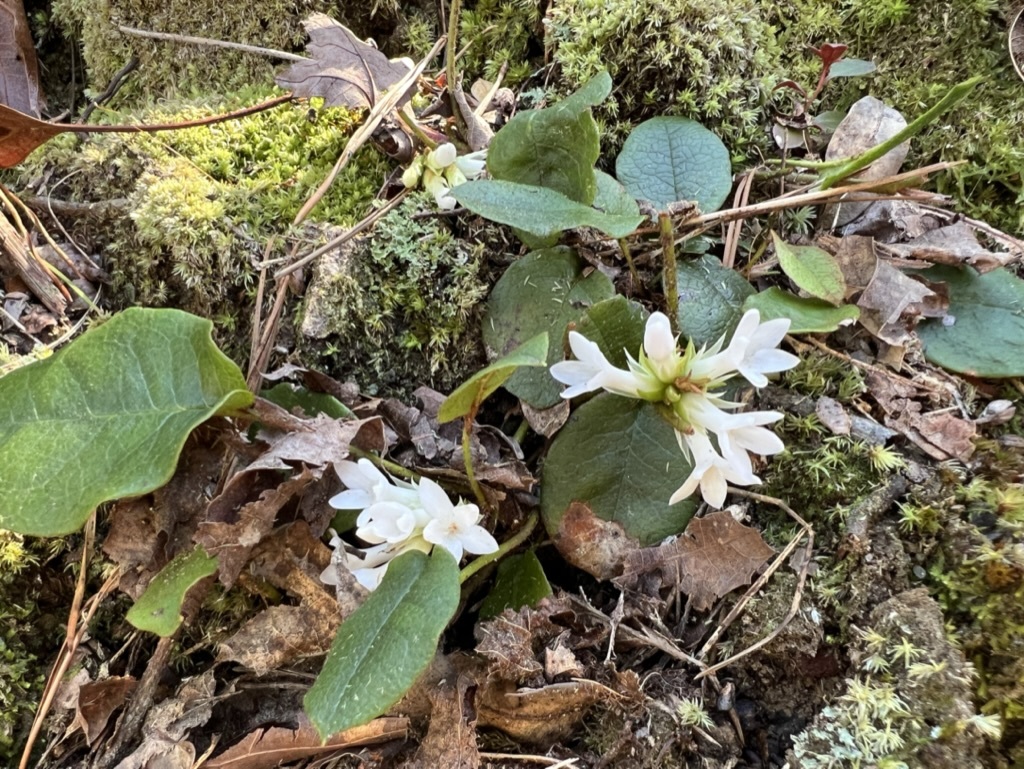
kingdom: Plantae
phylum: Tracheophyta
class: Magnoliopsida
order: Ericales
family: Ericaceae
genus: Epigaea
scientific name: Epigaea repens
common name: Gravelroot
